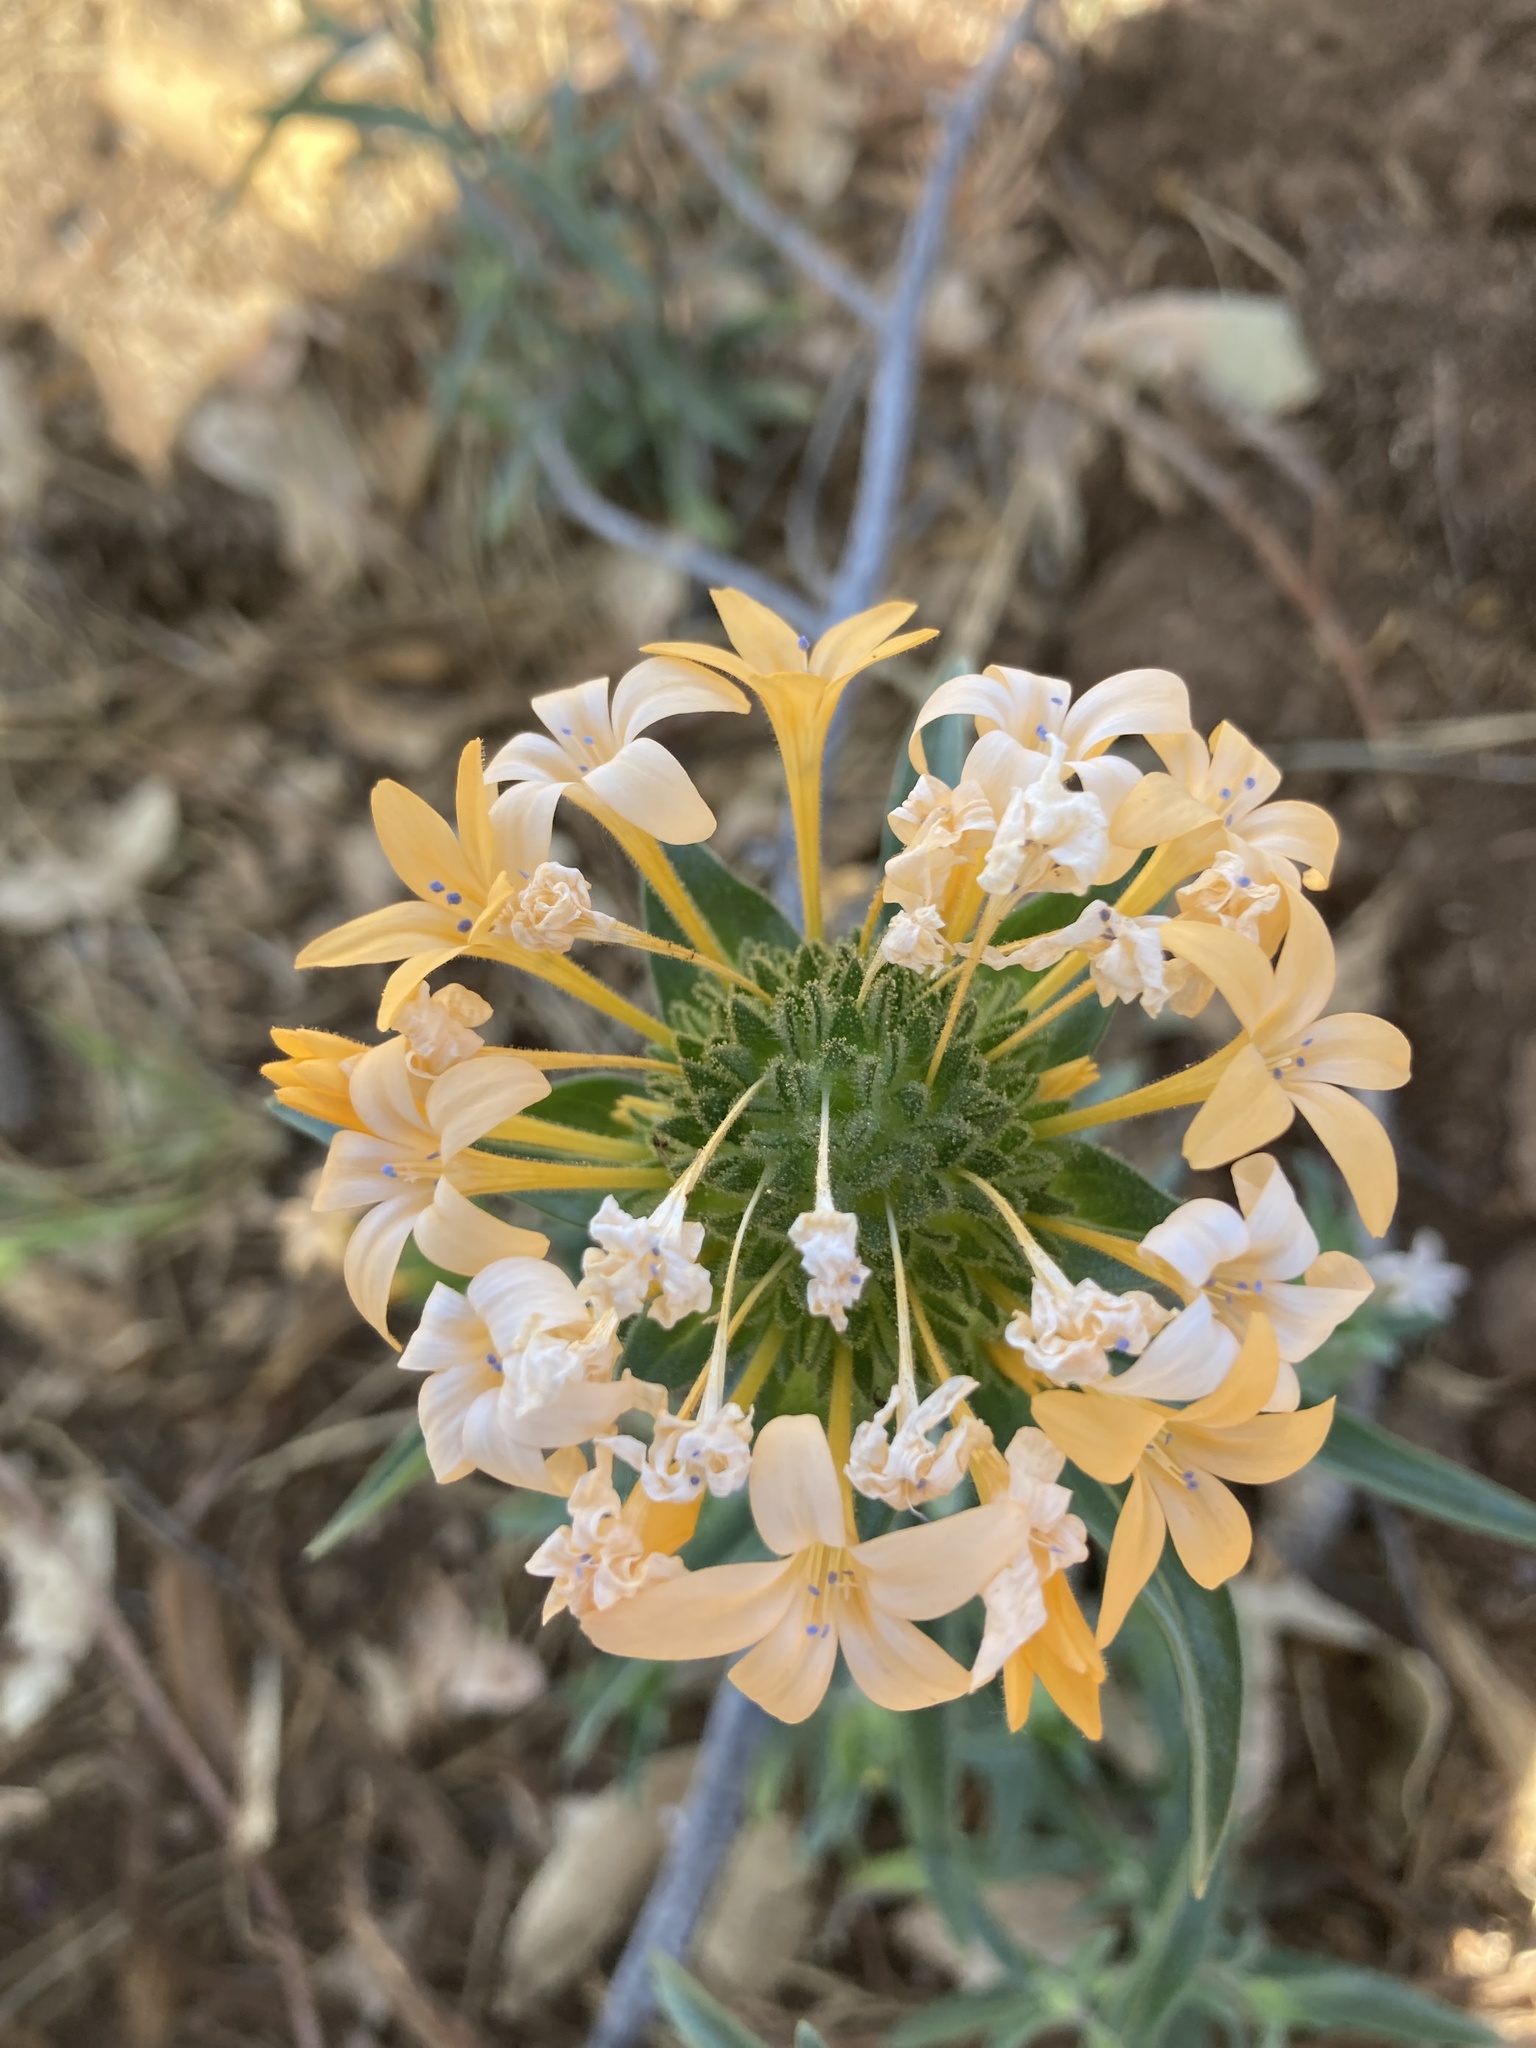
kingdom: Plantae
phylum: Tracheophyta
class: Magnoliopsida
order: Ericales
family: Polemoniaceae
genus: Collomia
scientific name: Collomia grandiflora
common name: California strawflower
